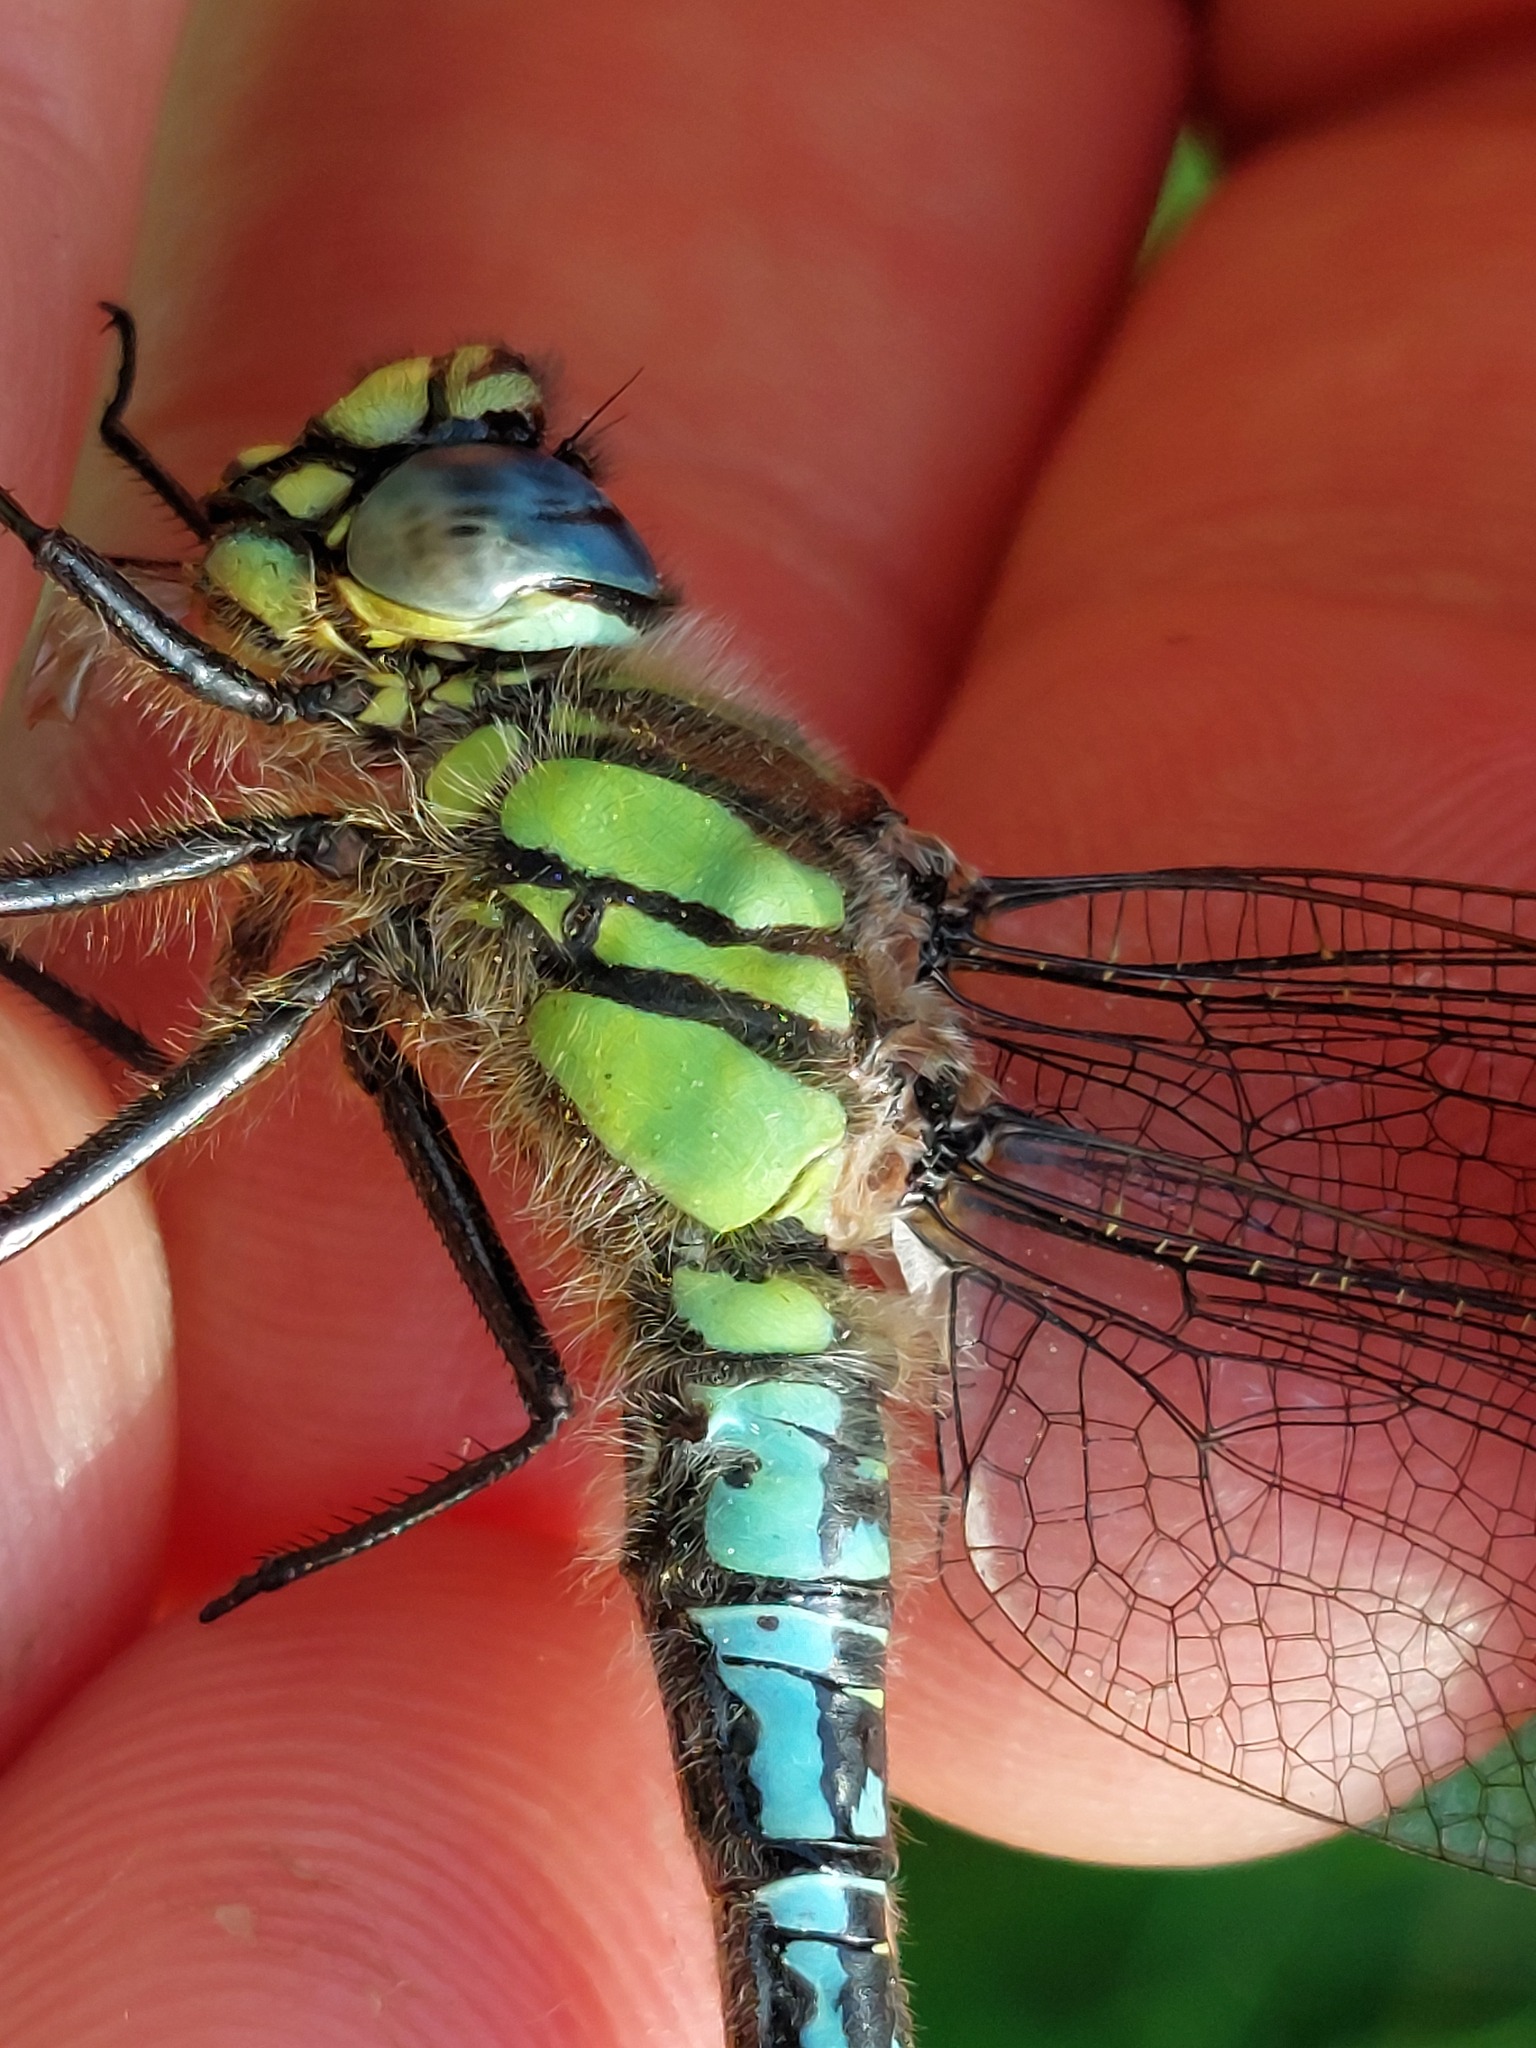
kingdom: Animalia
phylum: Arthropoda
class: Insecta
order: Odonata
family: Aeshnidae
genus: Brachytron
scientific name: Brachytron pratense
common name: Hairy hawker
